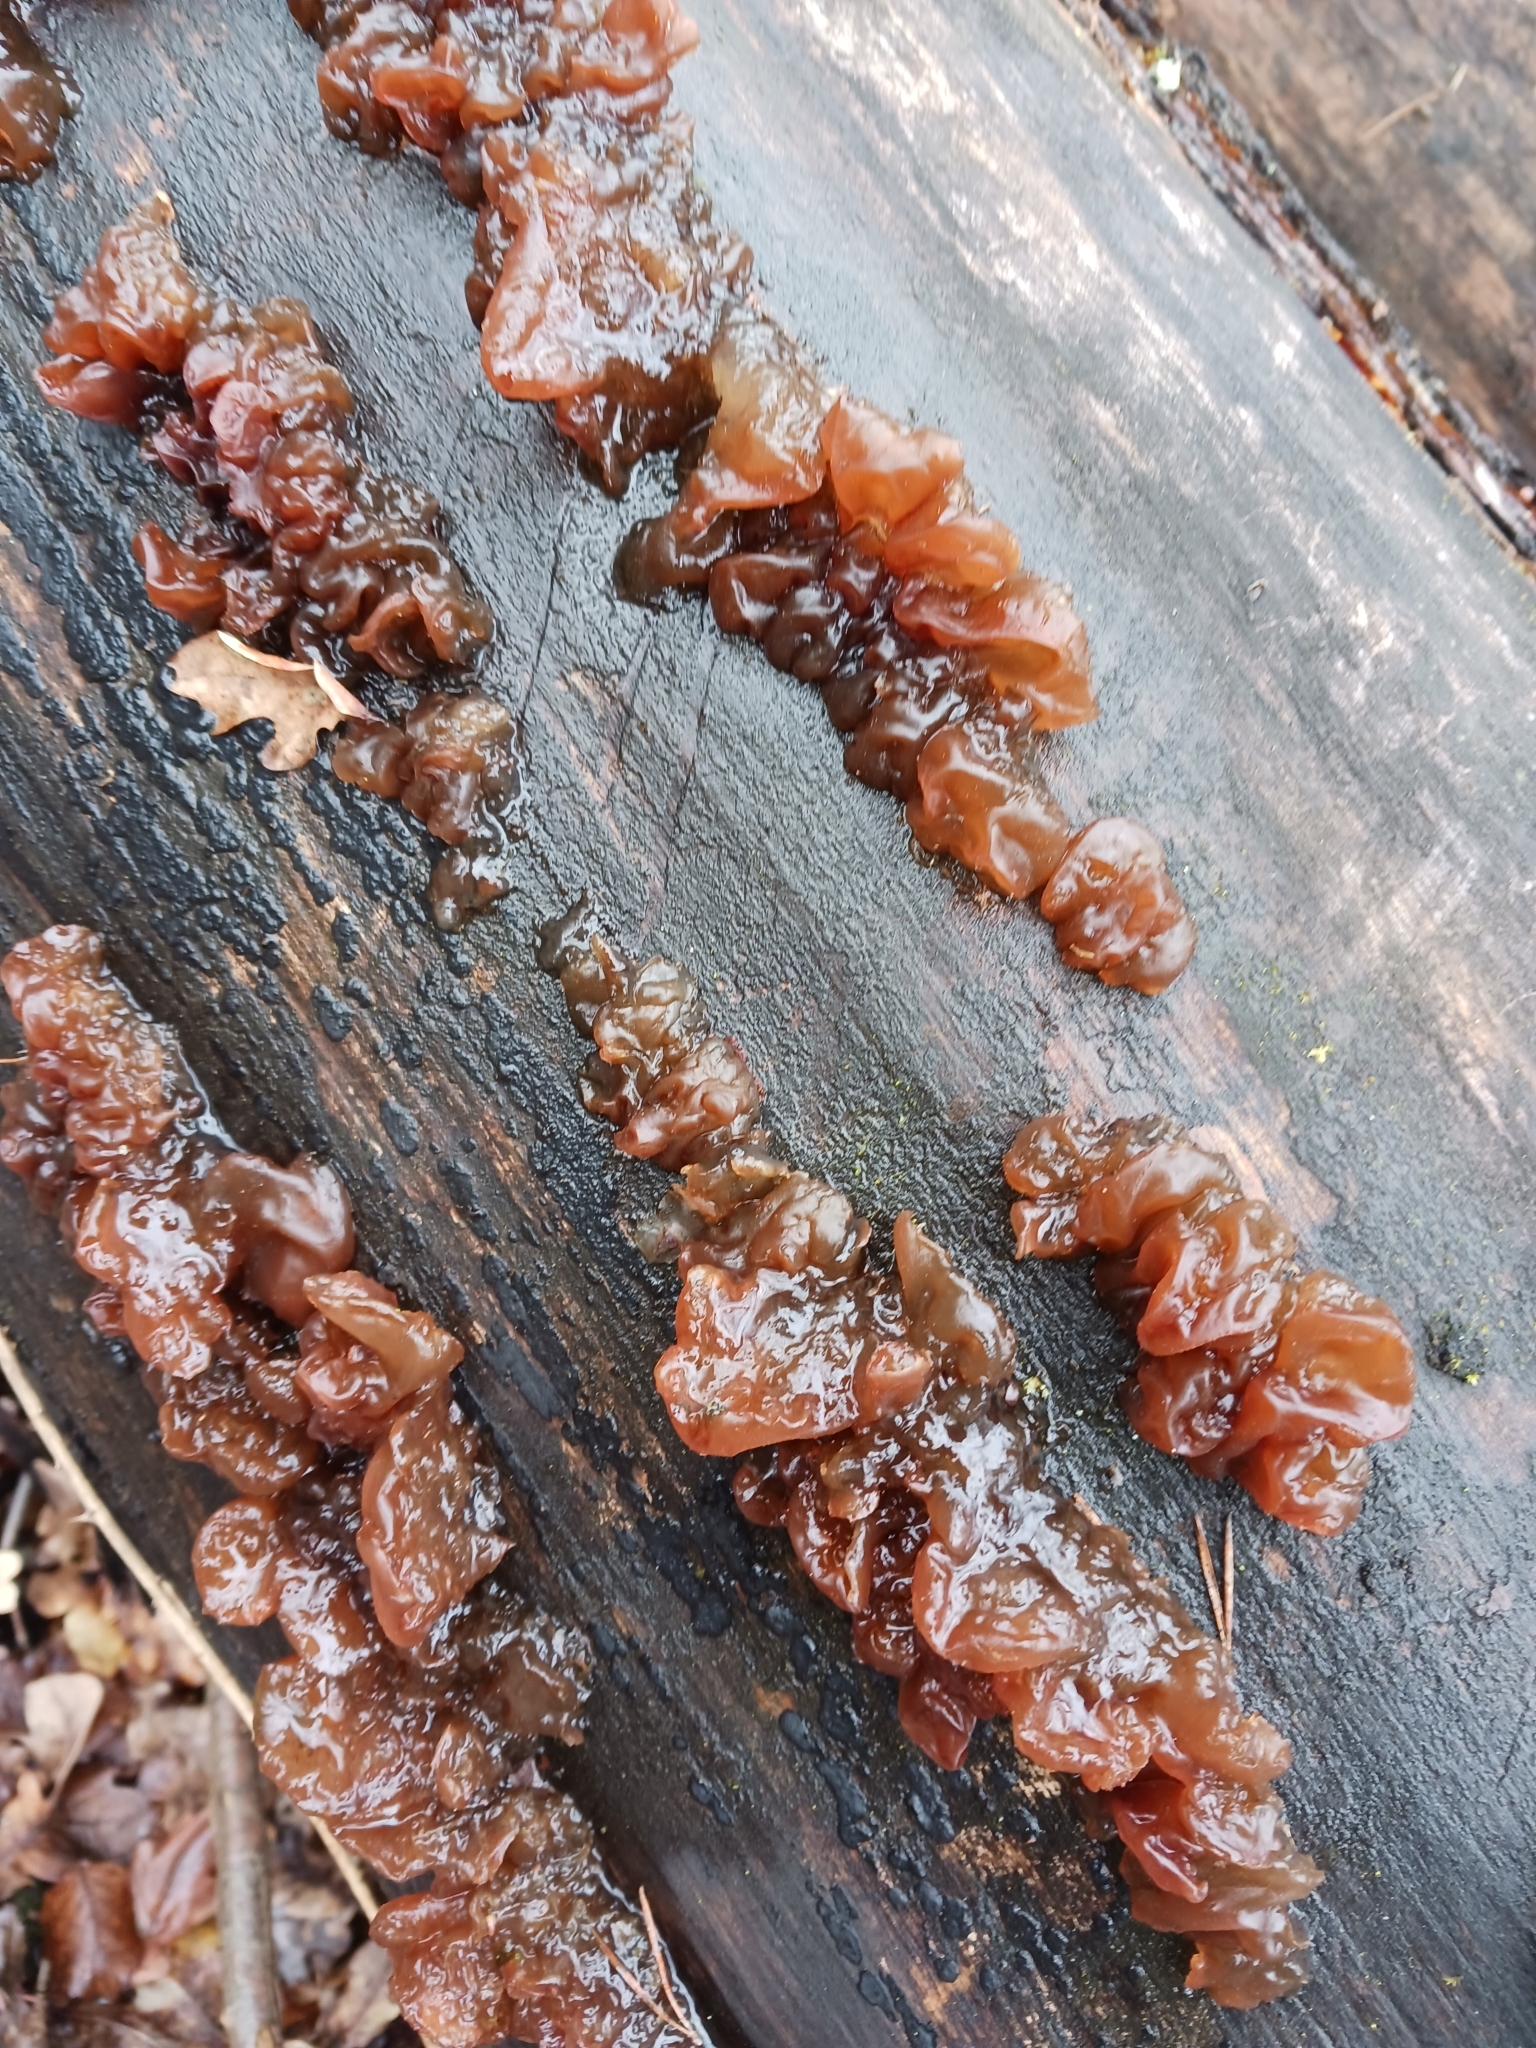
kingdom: Fungi
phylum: Basidiomycota
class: Tremellomycetes
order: Tremellales
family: Tremellaceae
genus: Phaeotremella
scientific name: Phaeotremella foliacea
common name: Leafy brain
